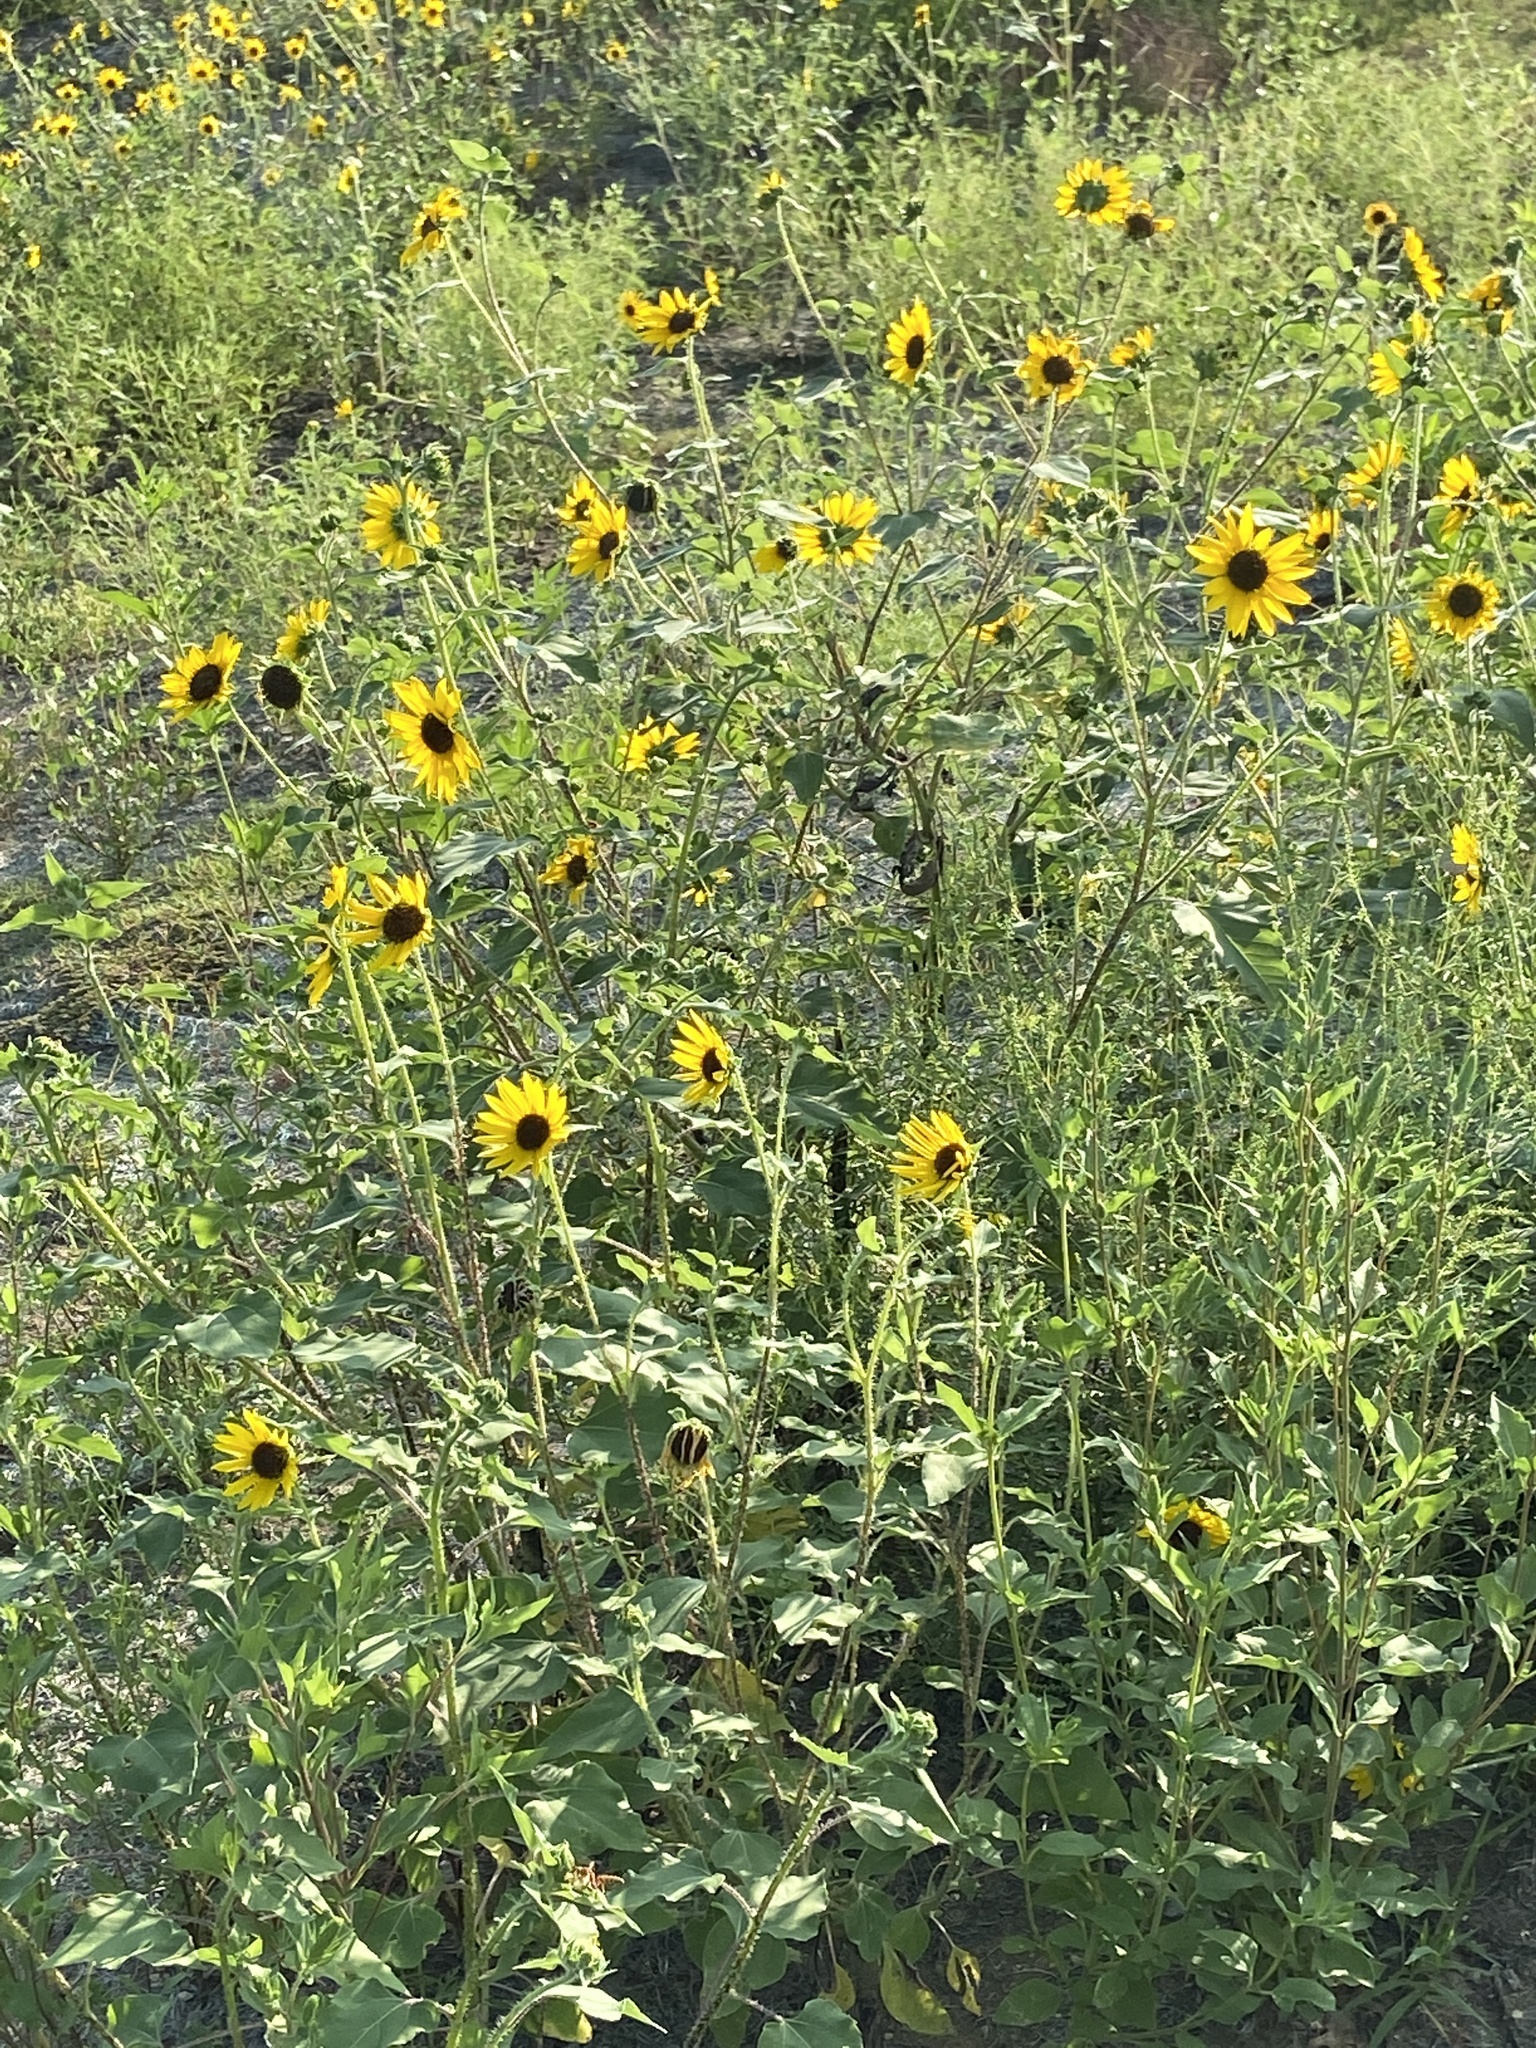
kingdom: Plantae
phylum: Tracheophyta
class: Magnoliopsida
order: Asterales
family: Asteraceae
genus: Helianthus
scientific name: Helianthus annuus
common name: Sunflower
